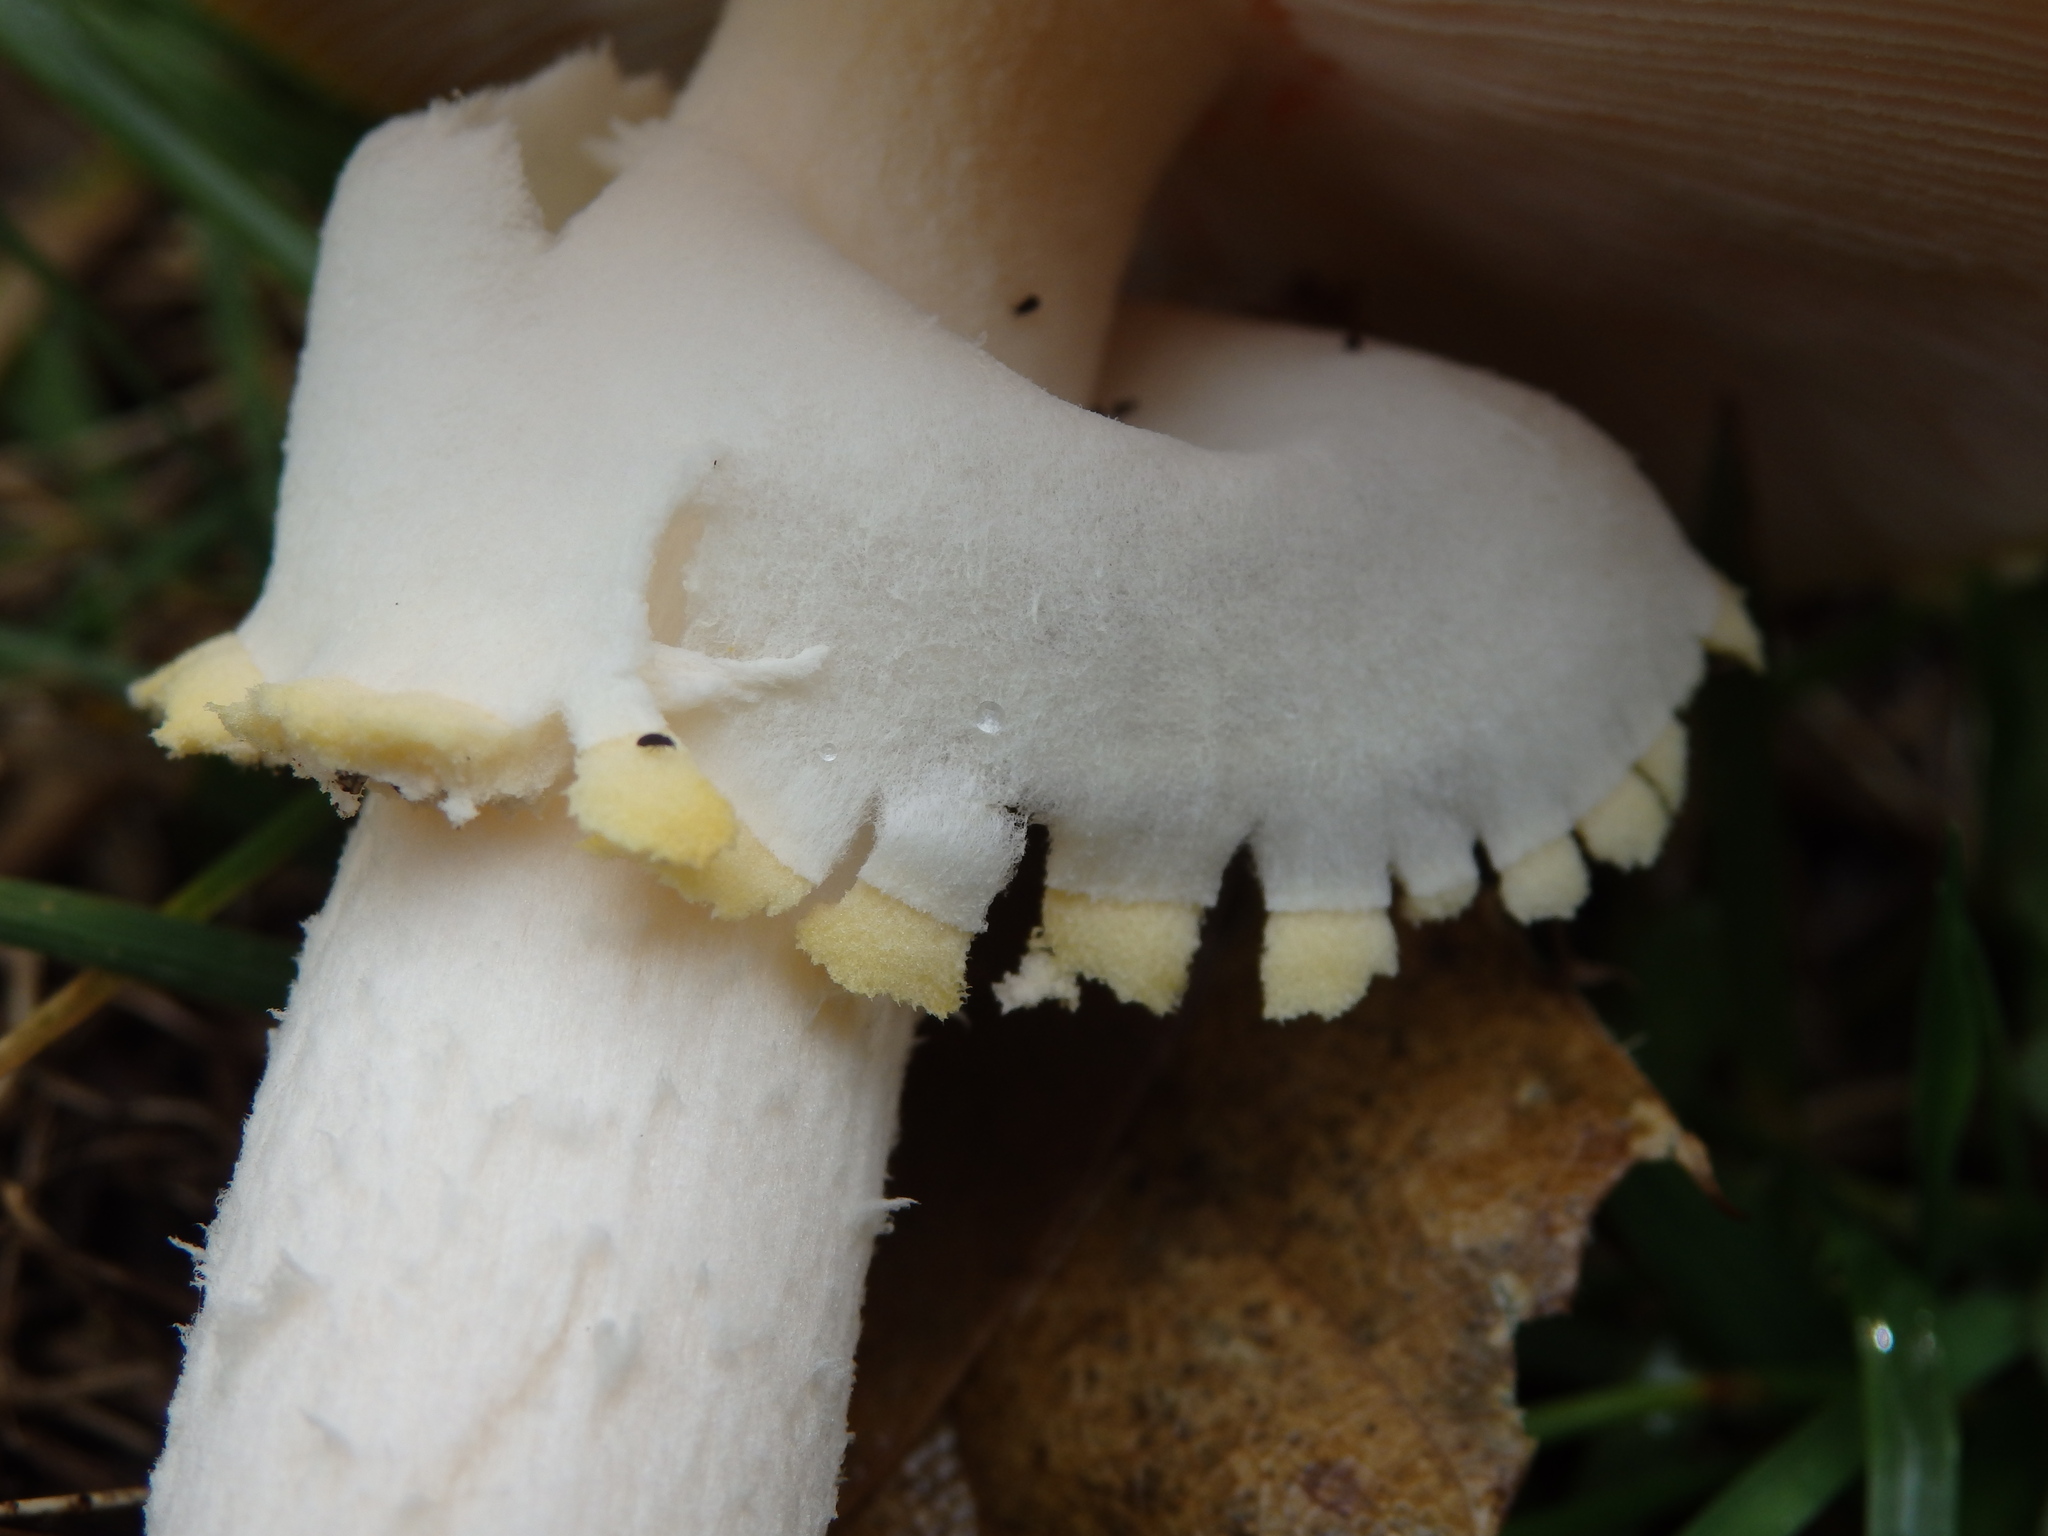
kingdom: Fungi
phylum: Basidiomycota
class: Agaricomycetes
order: Agaricales
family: Amanitaceae
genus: Amanita
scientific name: Amanita muscaria
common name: Fly agaric
